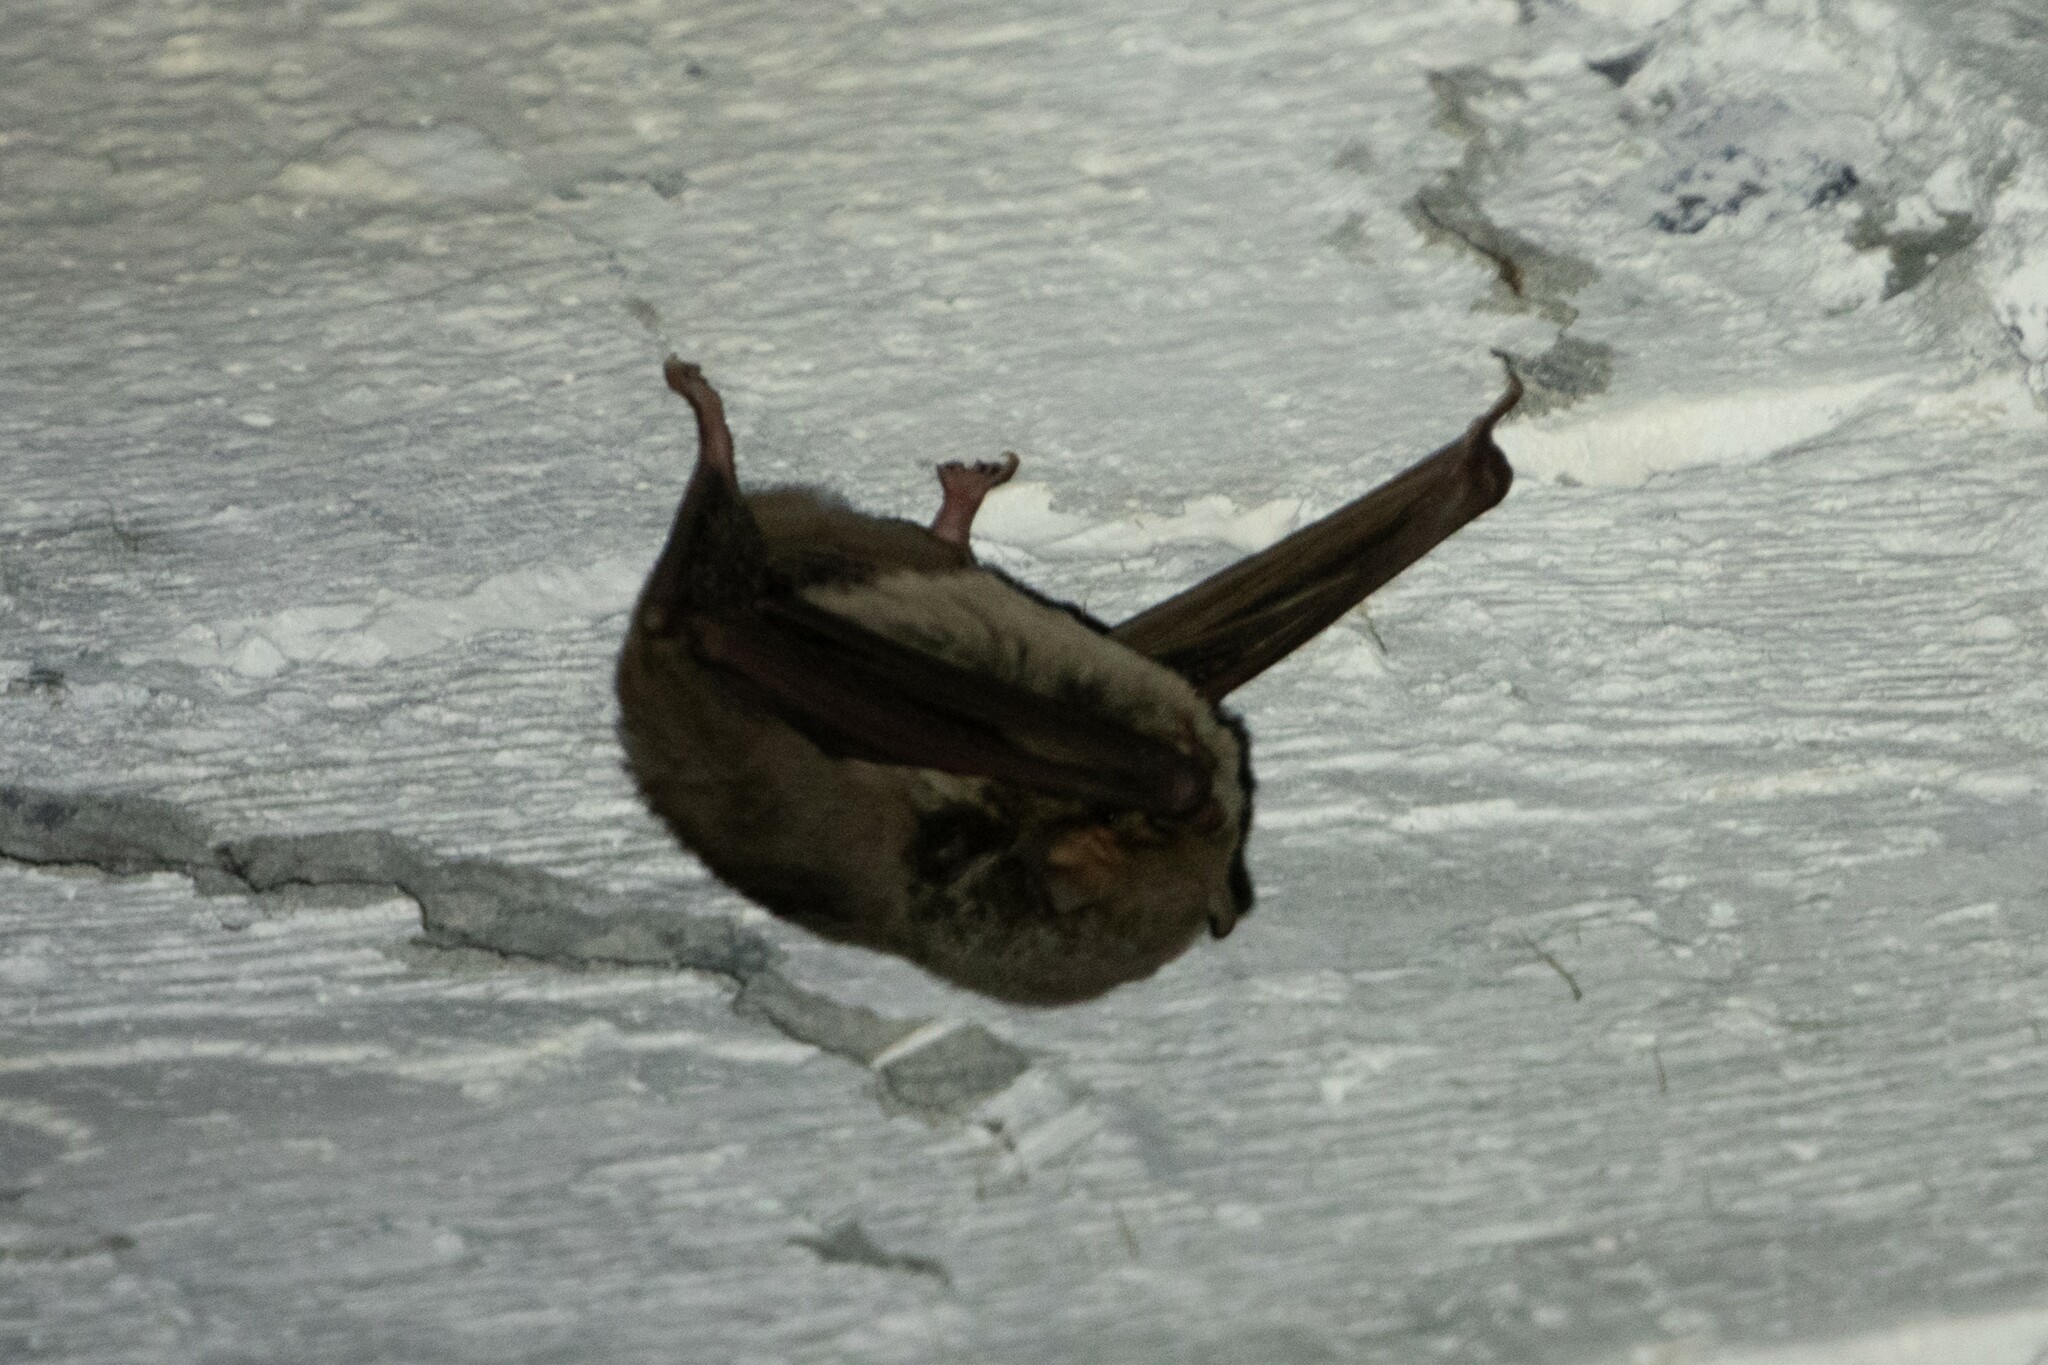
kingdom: Animalia
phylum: Chordata
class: Mammalia
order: Chiroptera
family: Miniopteridae
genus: Miniopterus
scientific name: Miniopterus schreibersii
